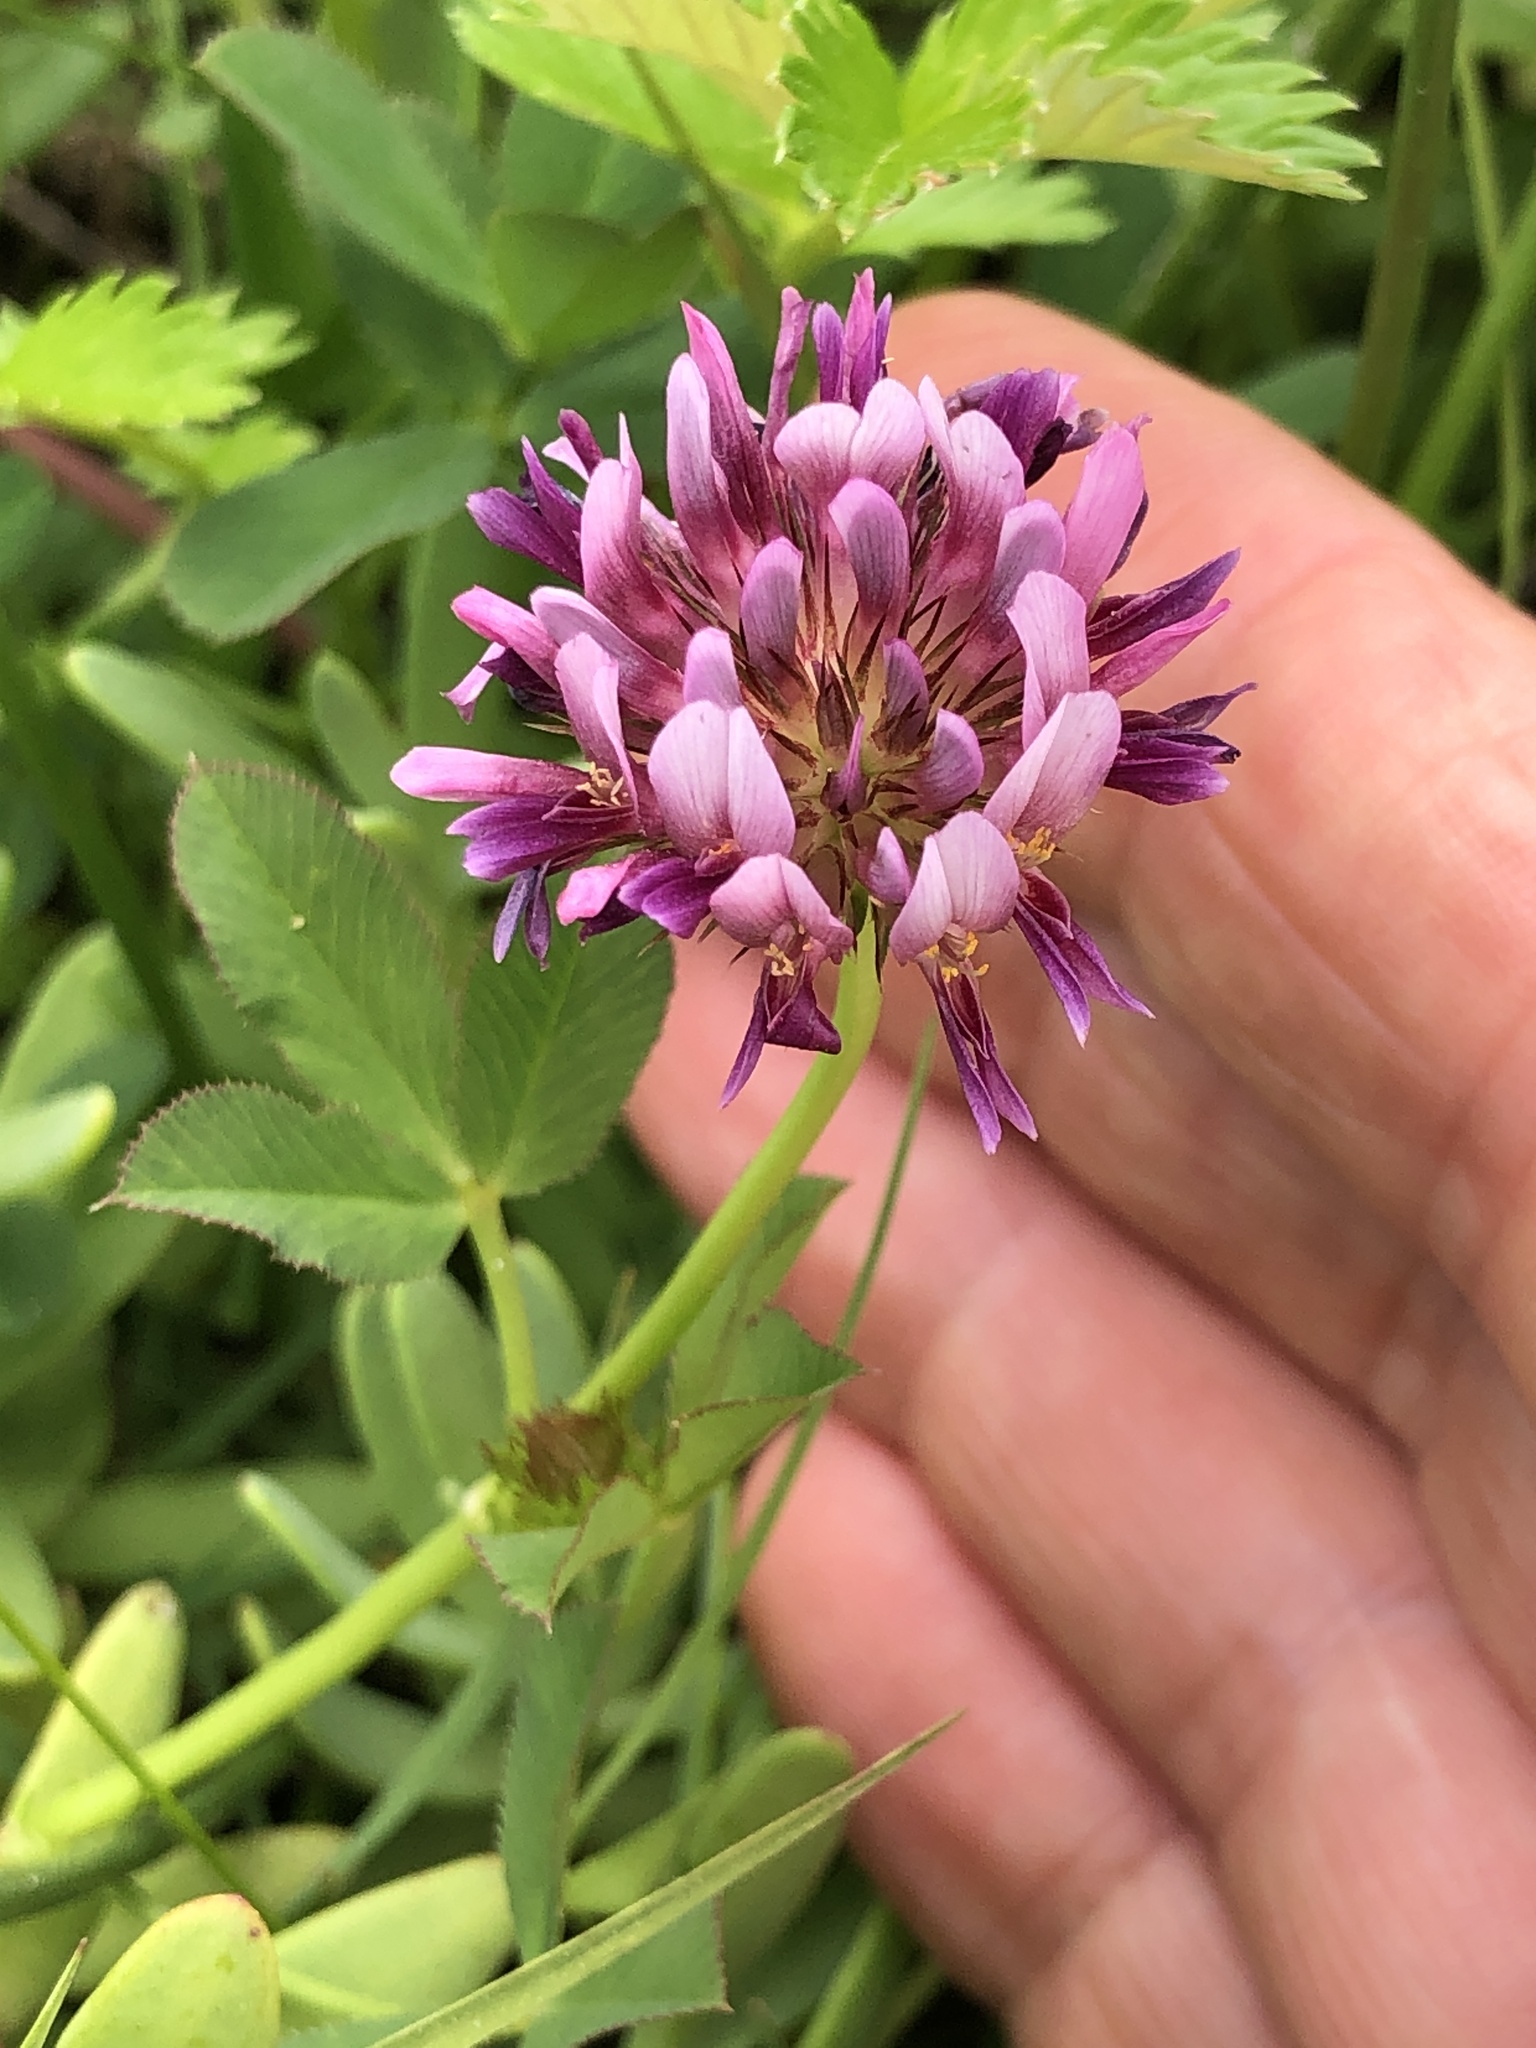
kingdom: Plantae
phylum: Tracheophyta
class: Magnoliopsida
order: Fabales
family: Fabaceae
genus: Trifolium
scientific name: Trifolium wormskioldii
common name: Springbank clover
